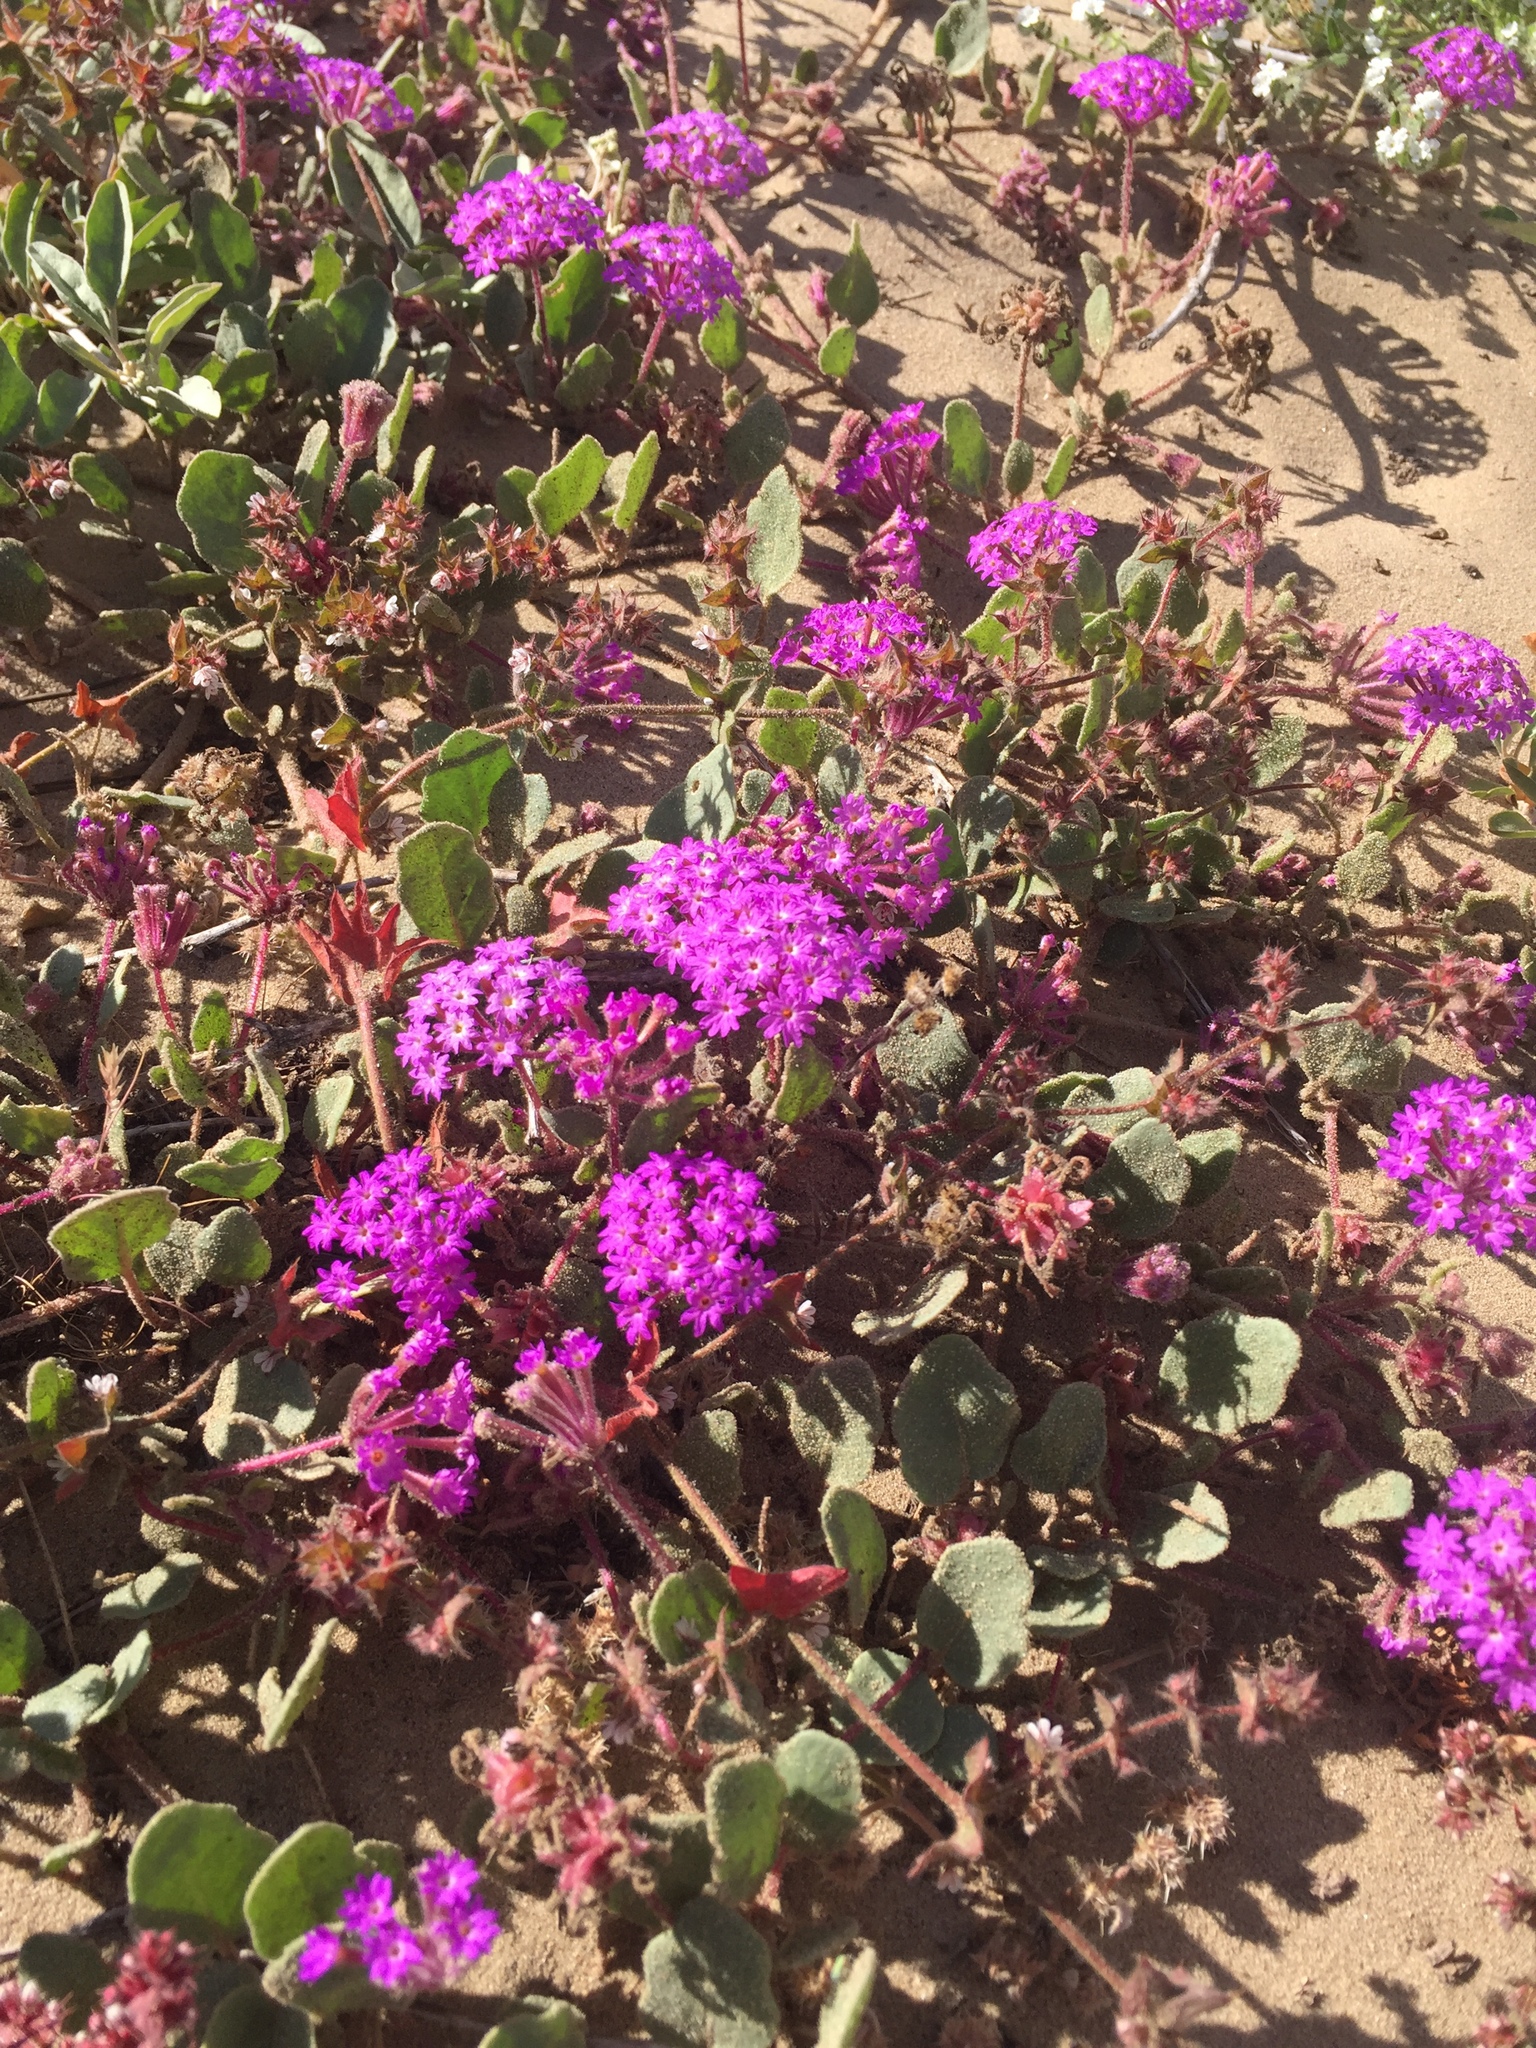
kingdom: Plantae
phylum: Tracheophyta
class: Magnoliopsida
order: Caryophyllales
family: Nyctaginaceae
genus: Abronia
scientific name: Abronia umbellata
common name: Sand-verbena
